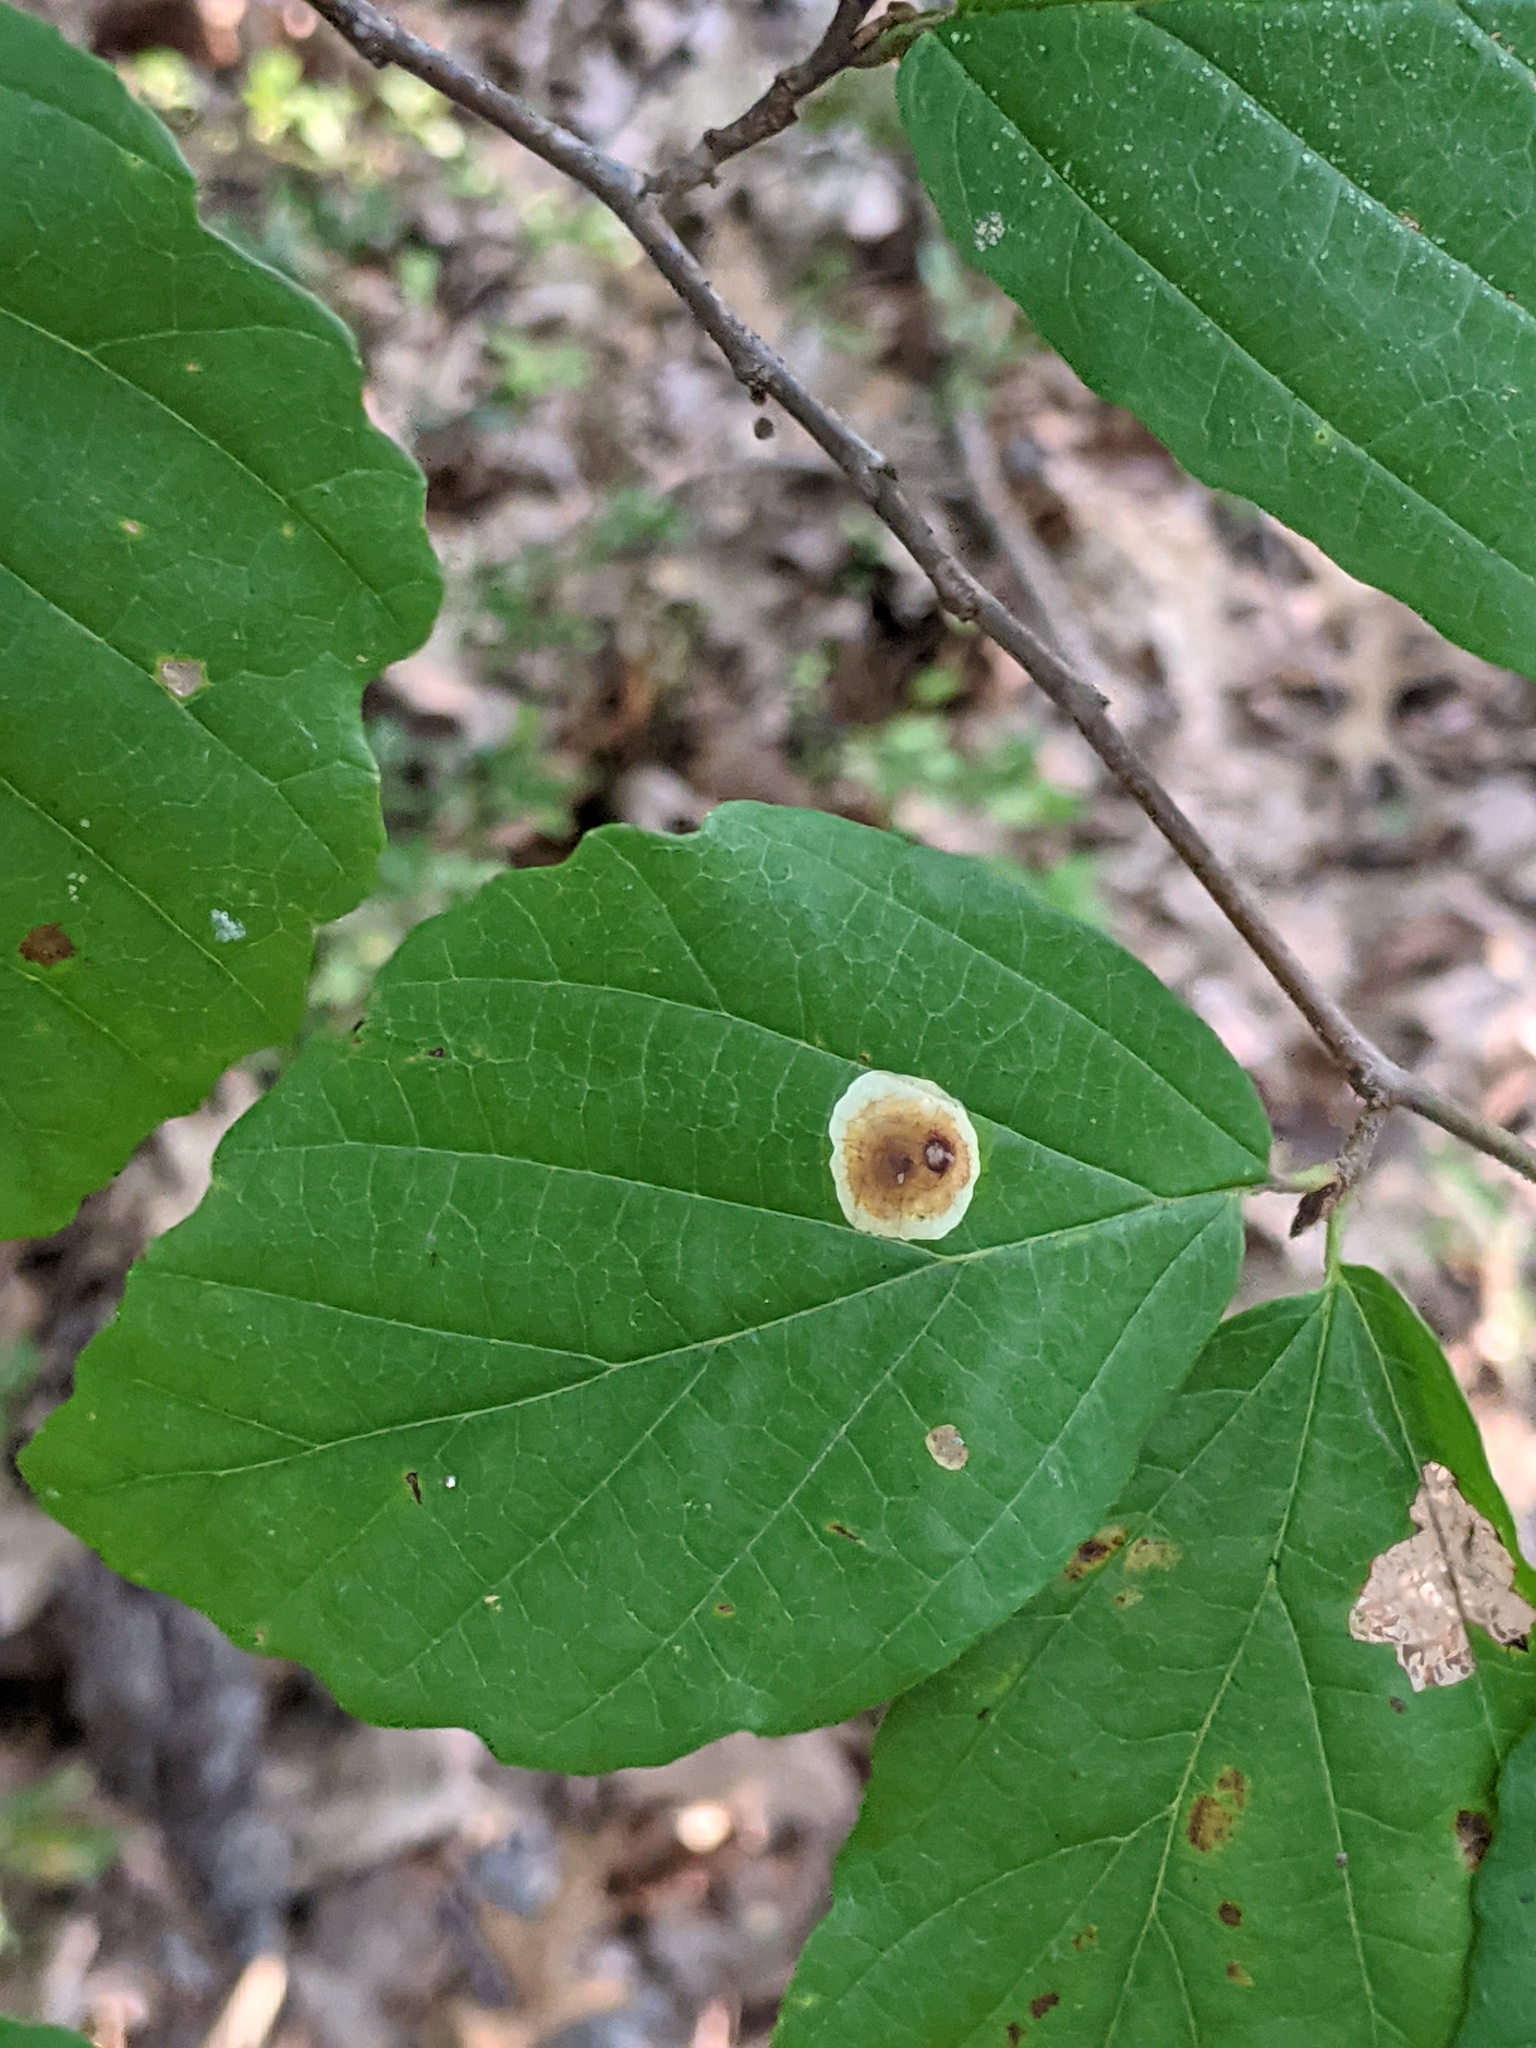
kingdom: Animalia
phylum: Arthropoda
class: Insecta
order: Lepidoptera
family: Gracillariidae
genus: Cameraria
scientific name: Cameraria hamameliella
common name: Witchhazel leafminer
